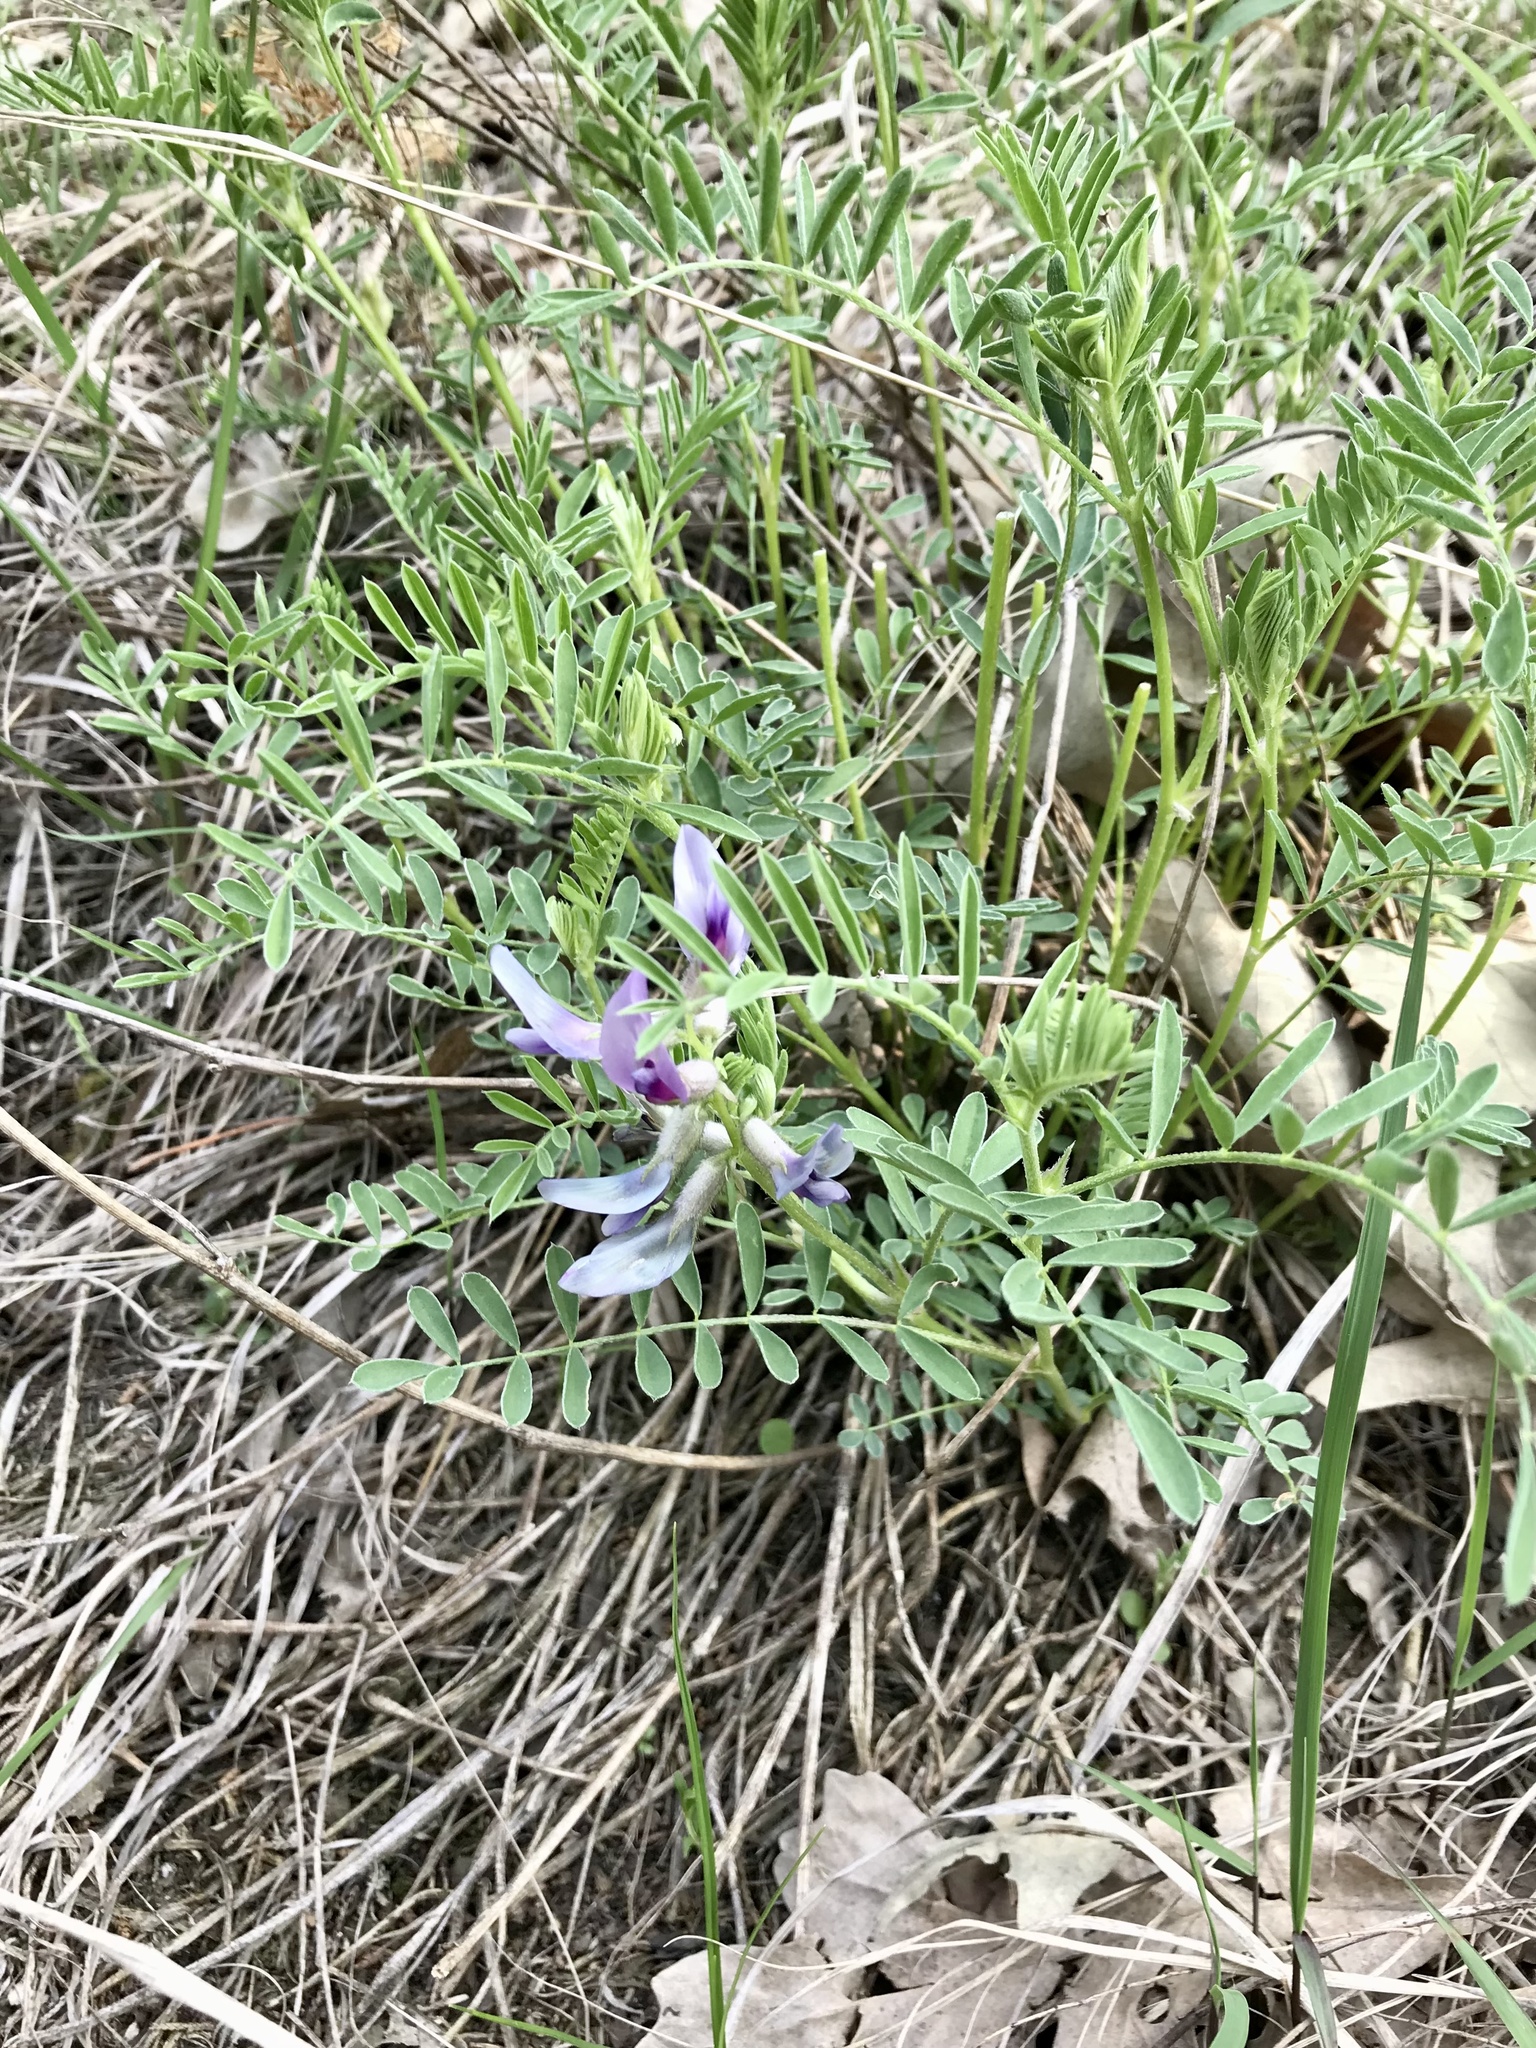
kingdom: Plantae
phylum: Tracheophyta
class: Magnoliopsida
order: Fabales
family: Fabaceae
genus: Astragalus
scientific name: Astragalus crassicarpus
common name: Ground-plum milk-vetch
